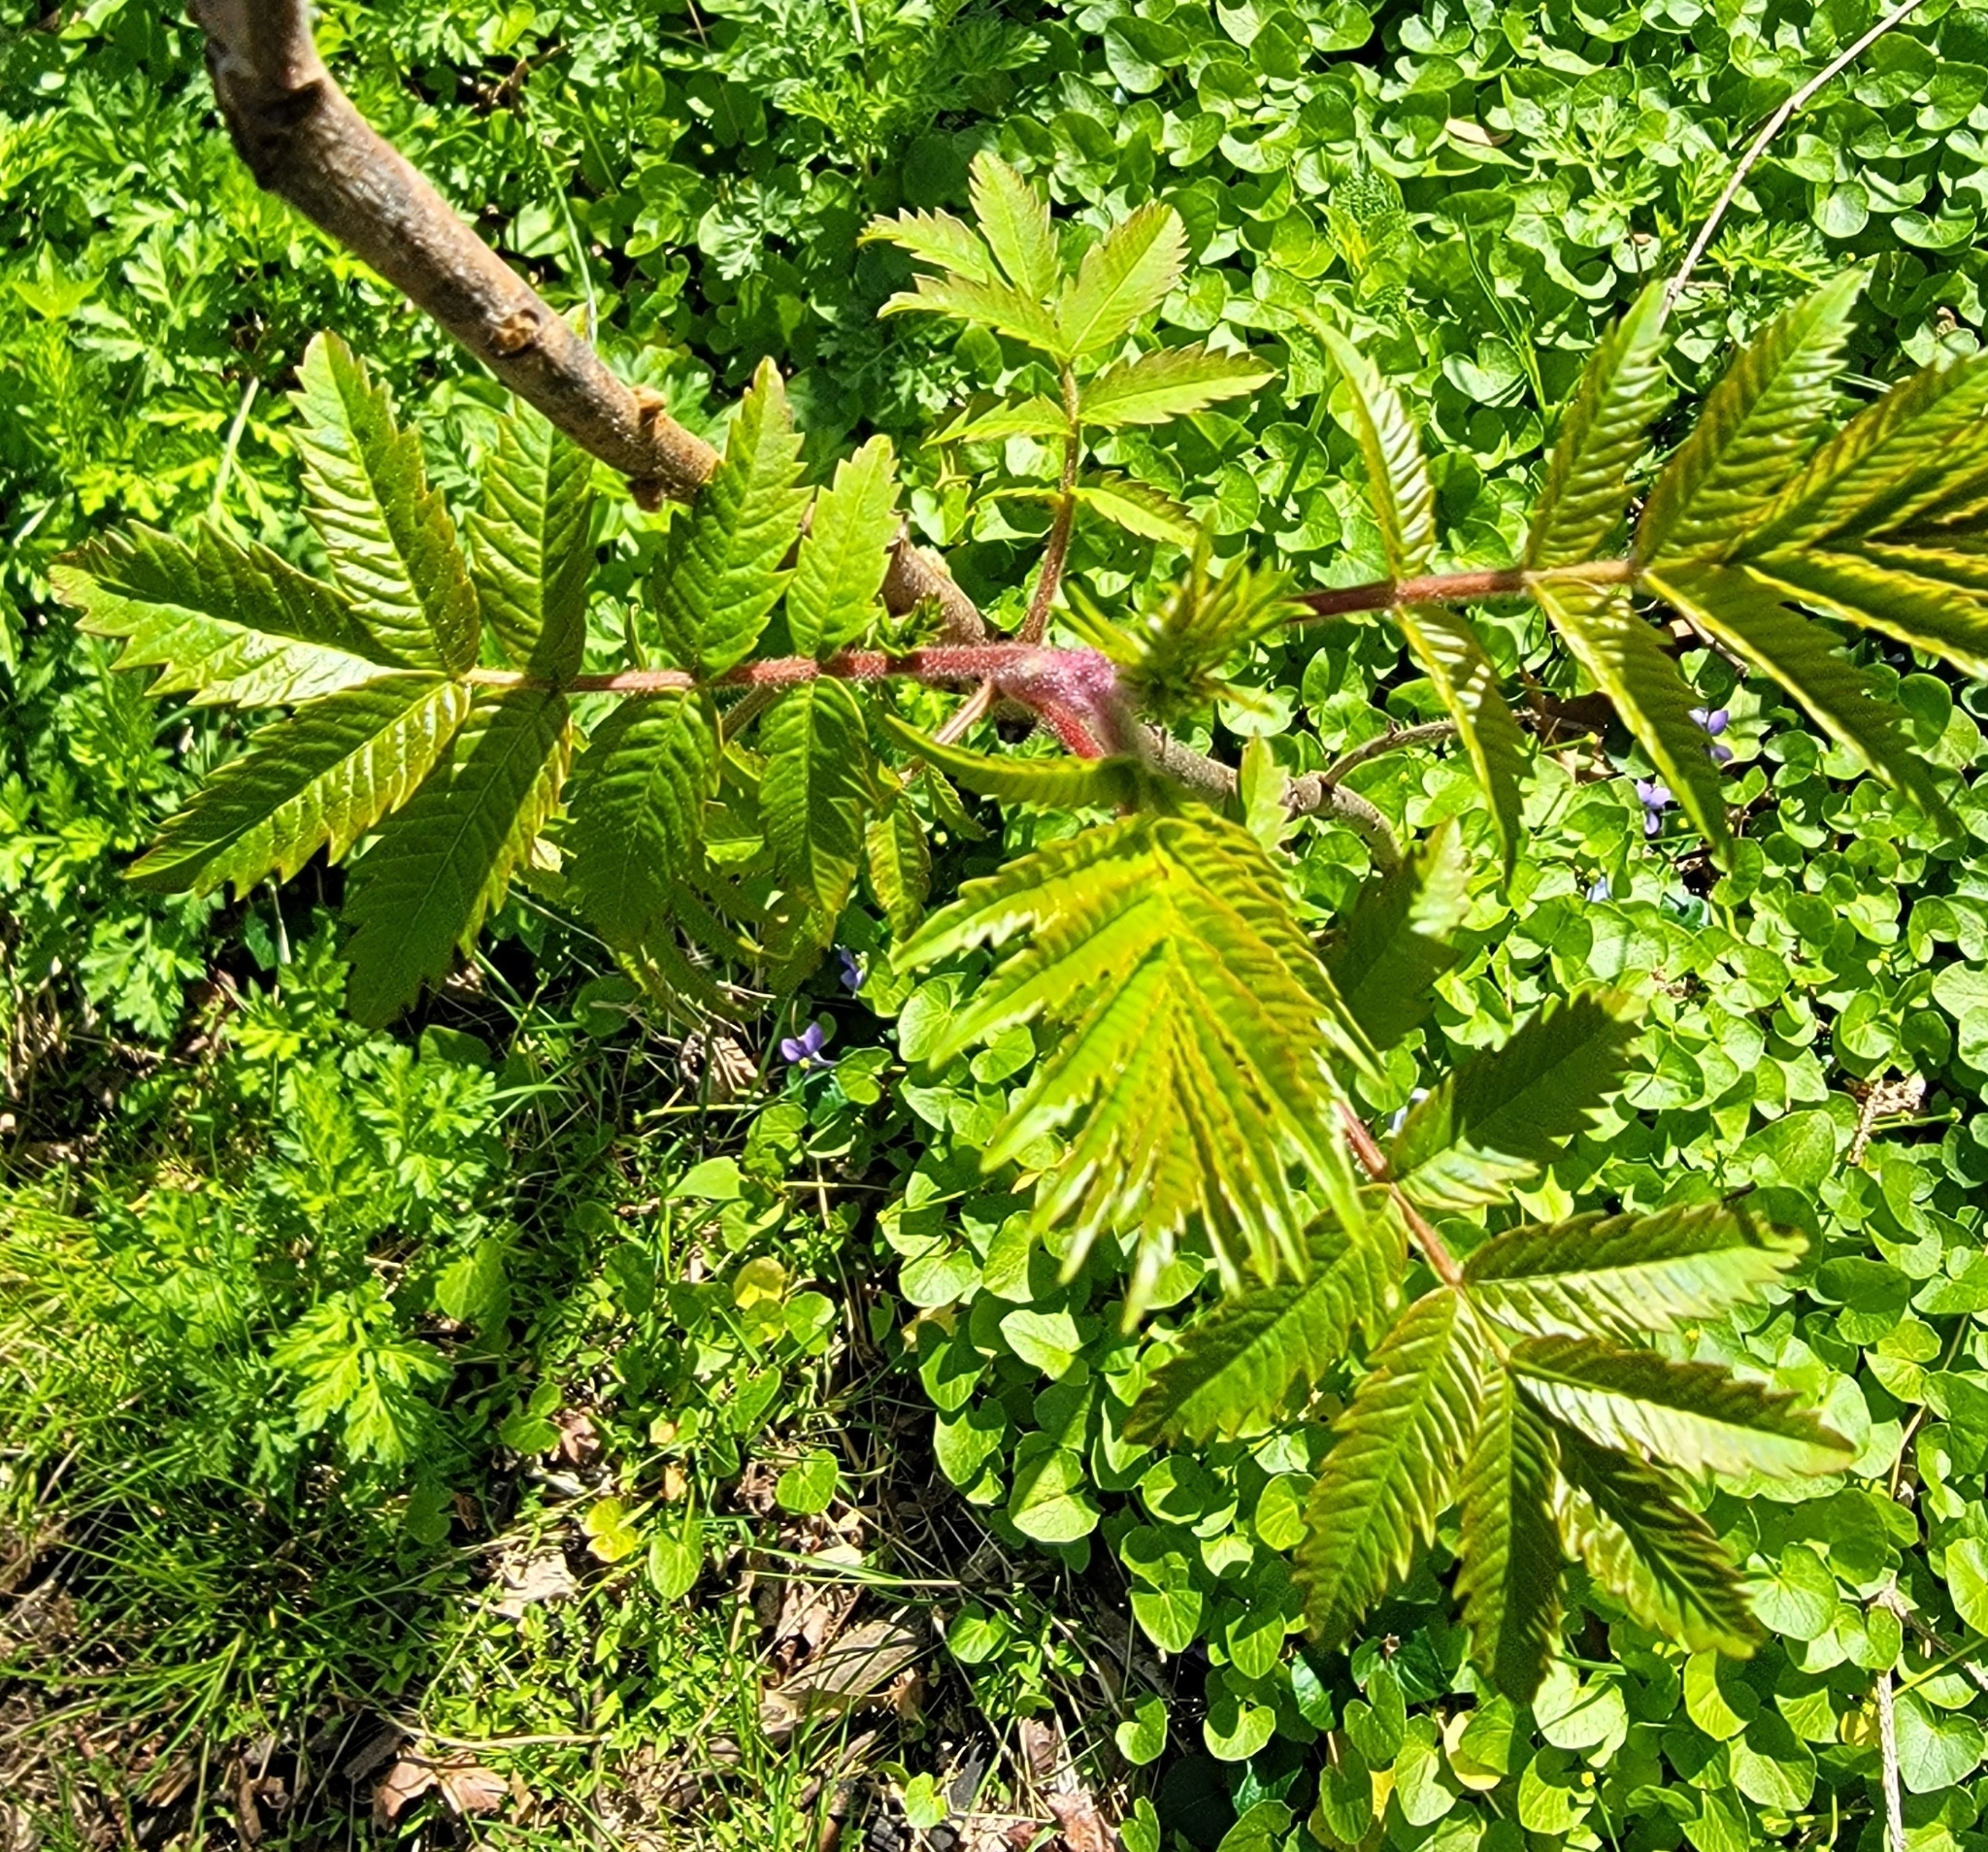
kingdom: Plantae
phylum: Tracheophyta
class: Magnoliopsida
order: Sapindales
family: Anacardiaceae
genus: Rhus
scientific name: Rhus typhina
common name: Staghorn sumac
